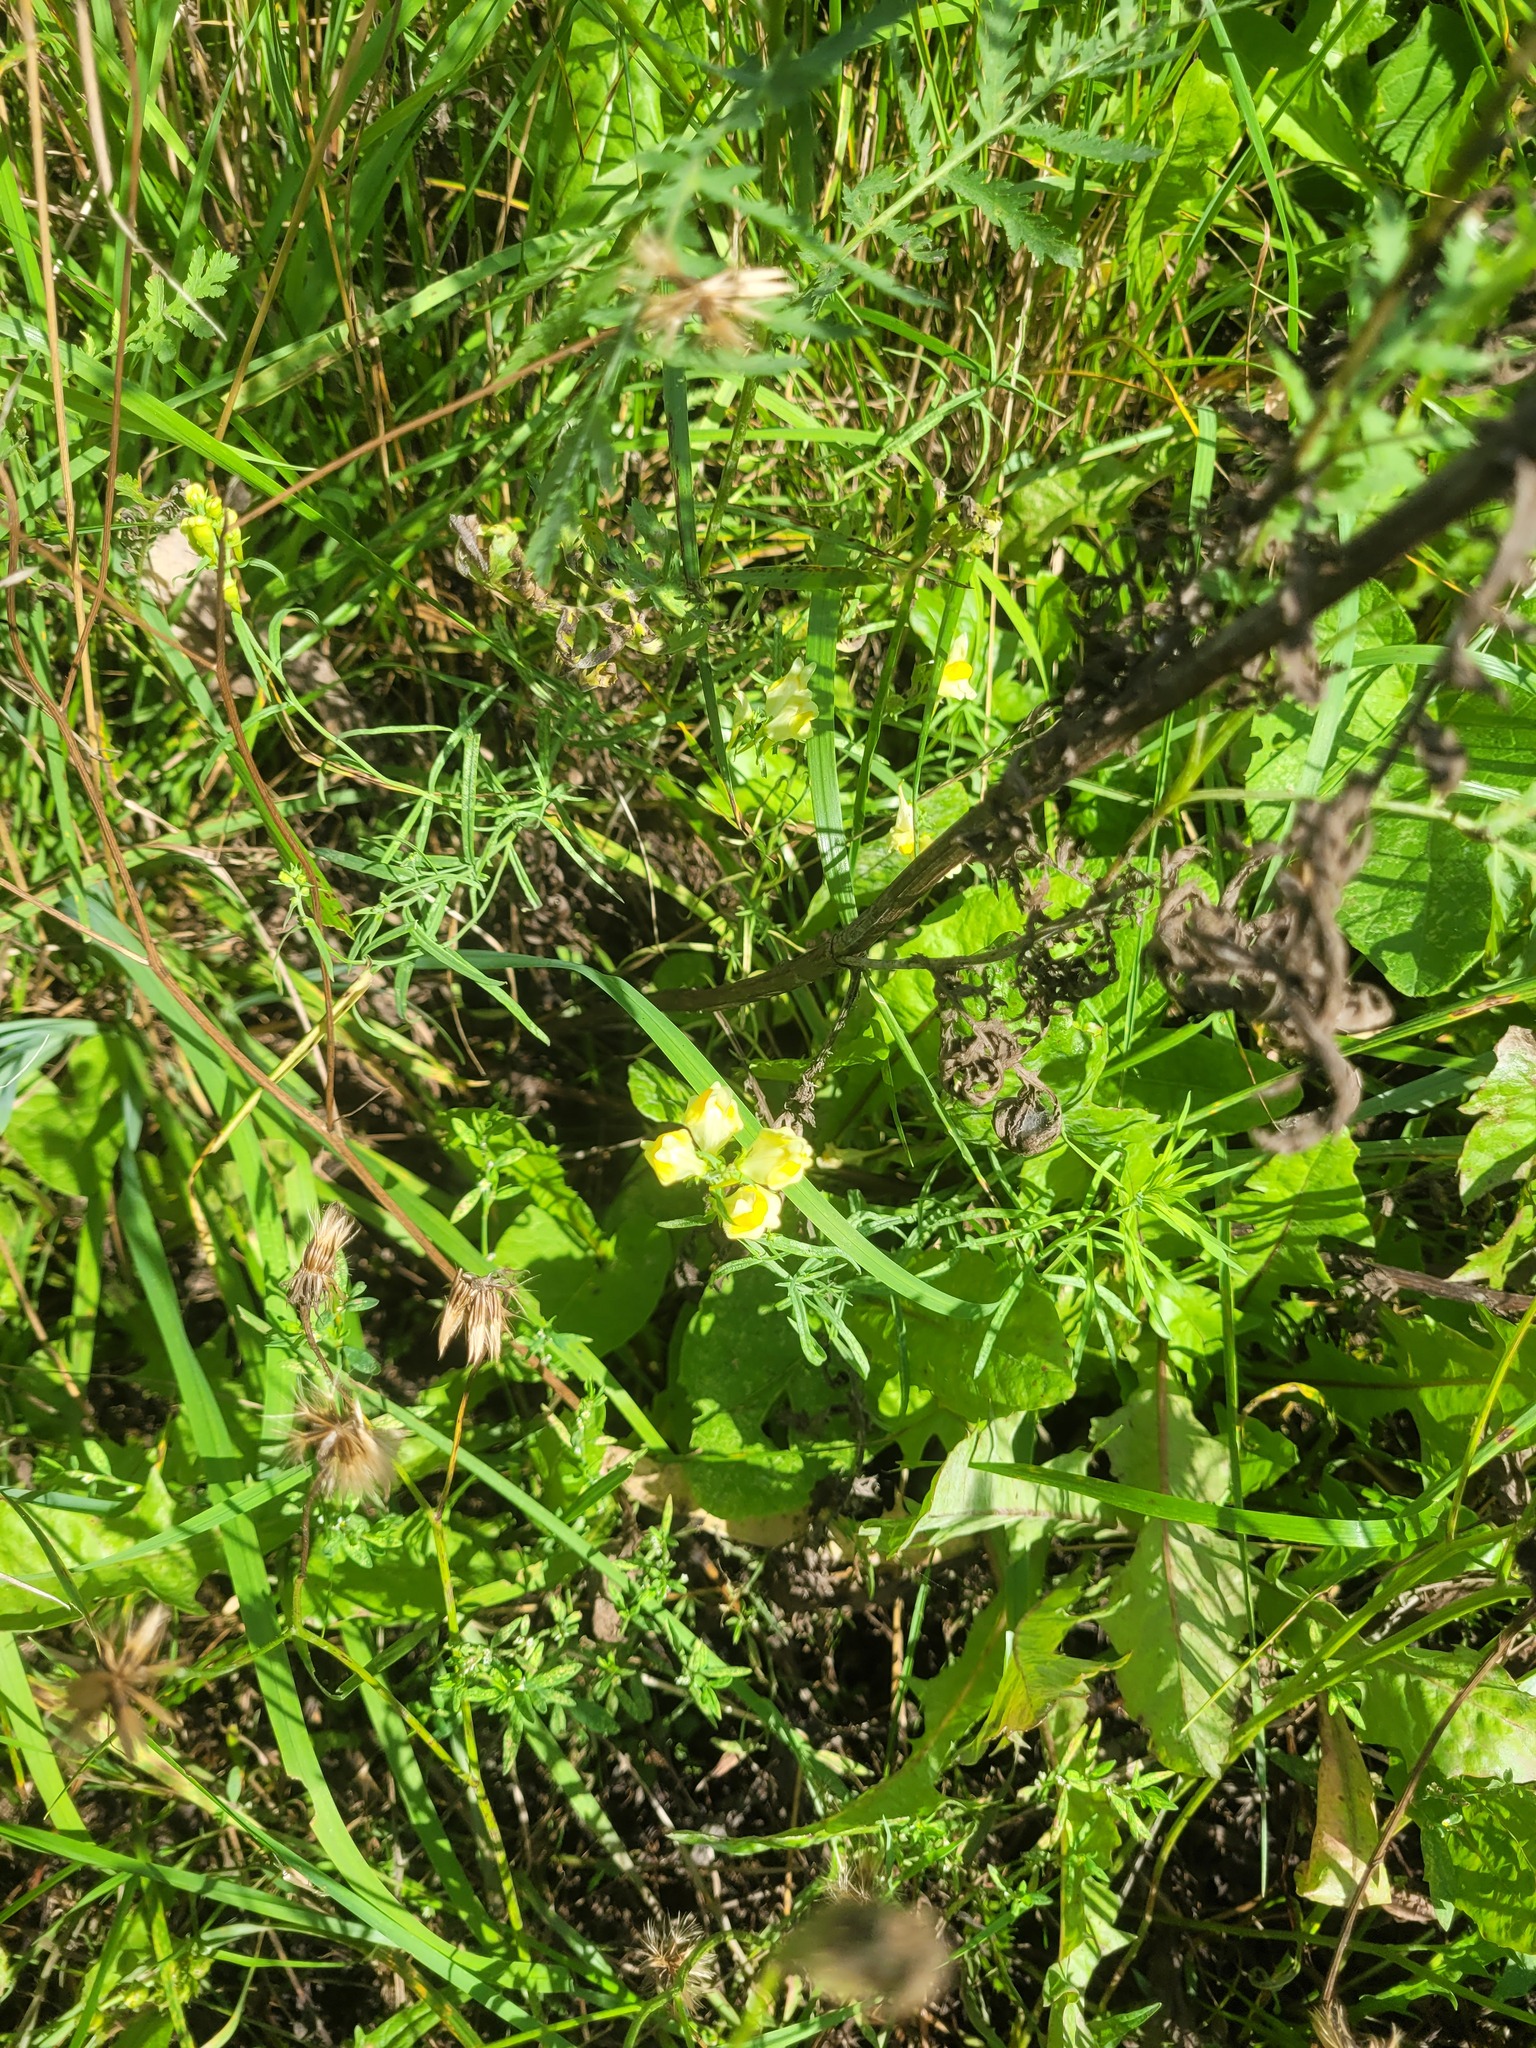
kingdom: Plantae
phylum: Tracheophyta
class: Magnoliopsida
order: Lamiales
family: Plantaginaceae
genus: Linaria
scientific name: Linaria vulgaris
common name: Butter and eggs
